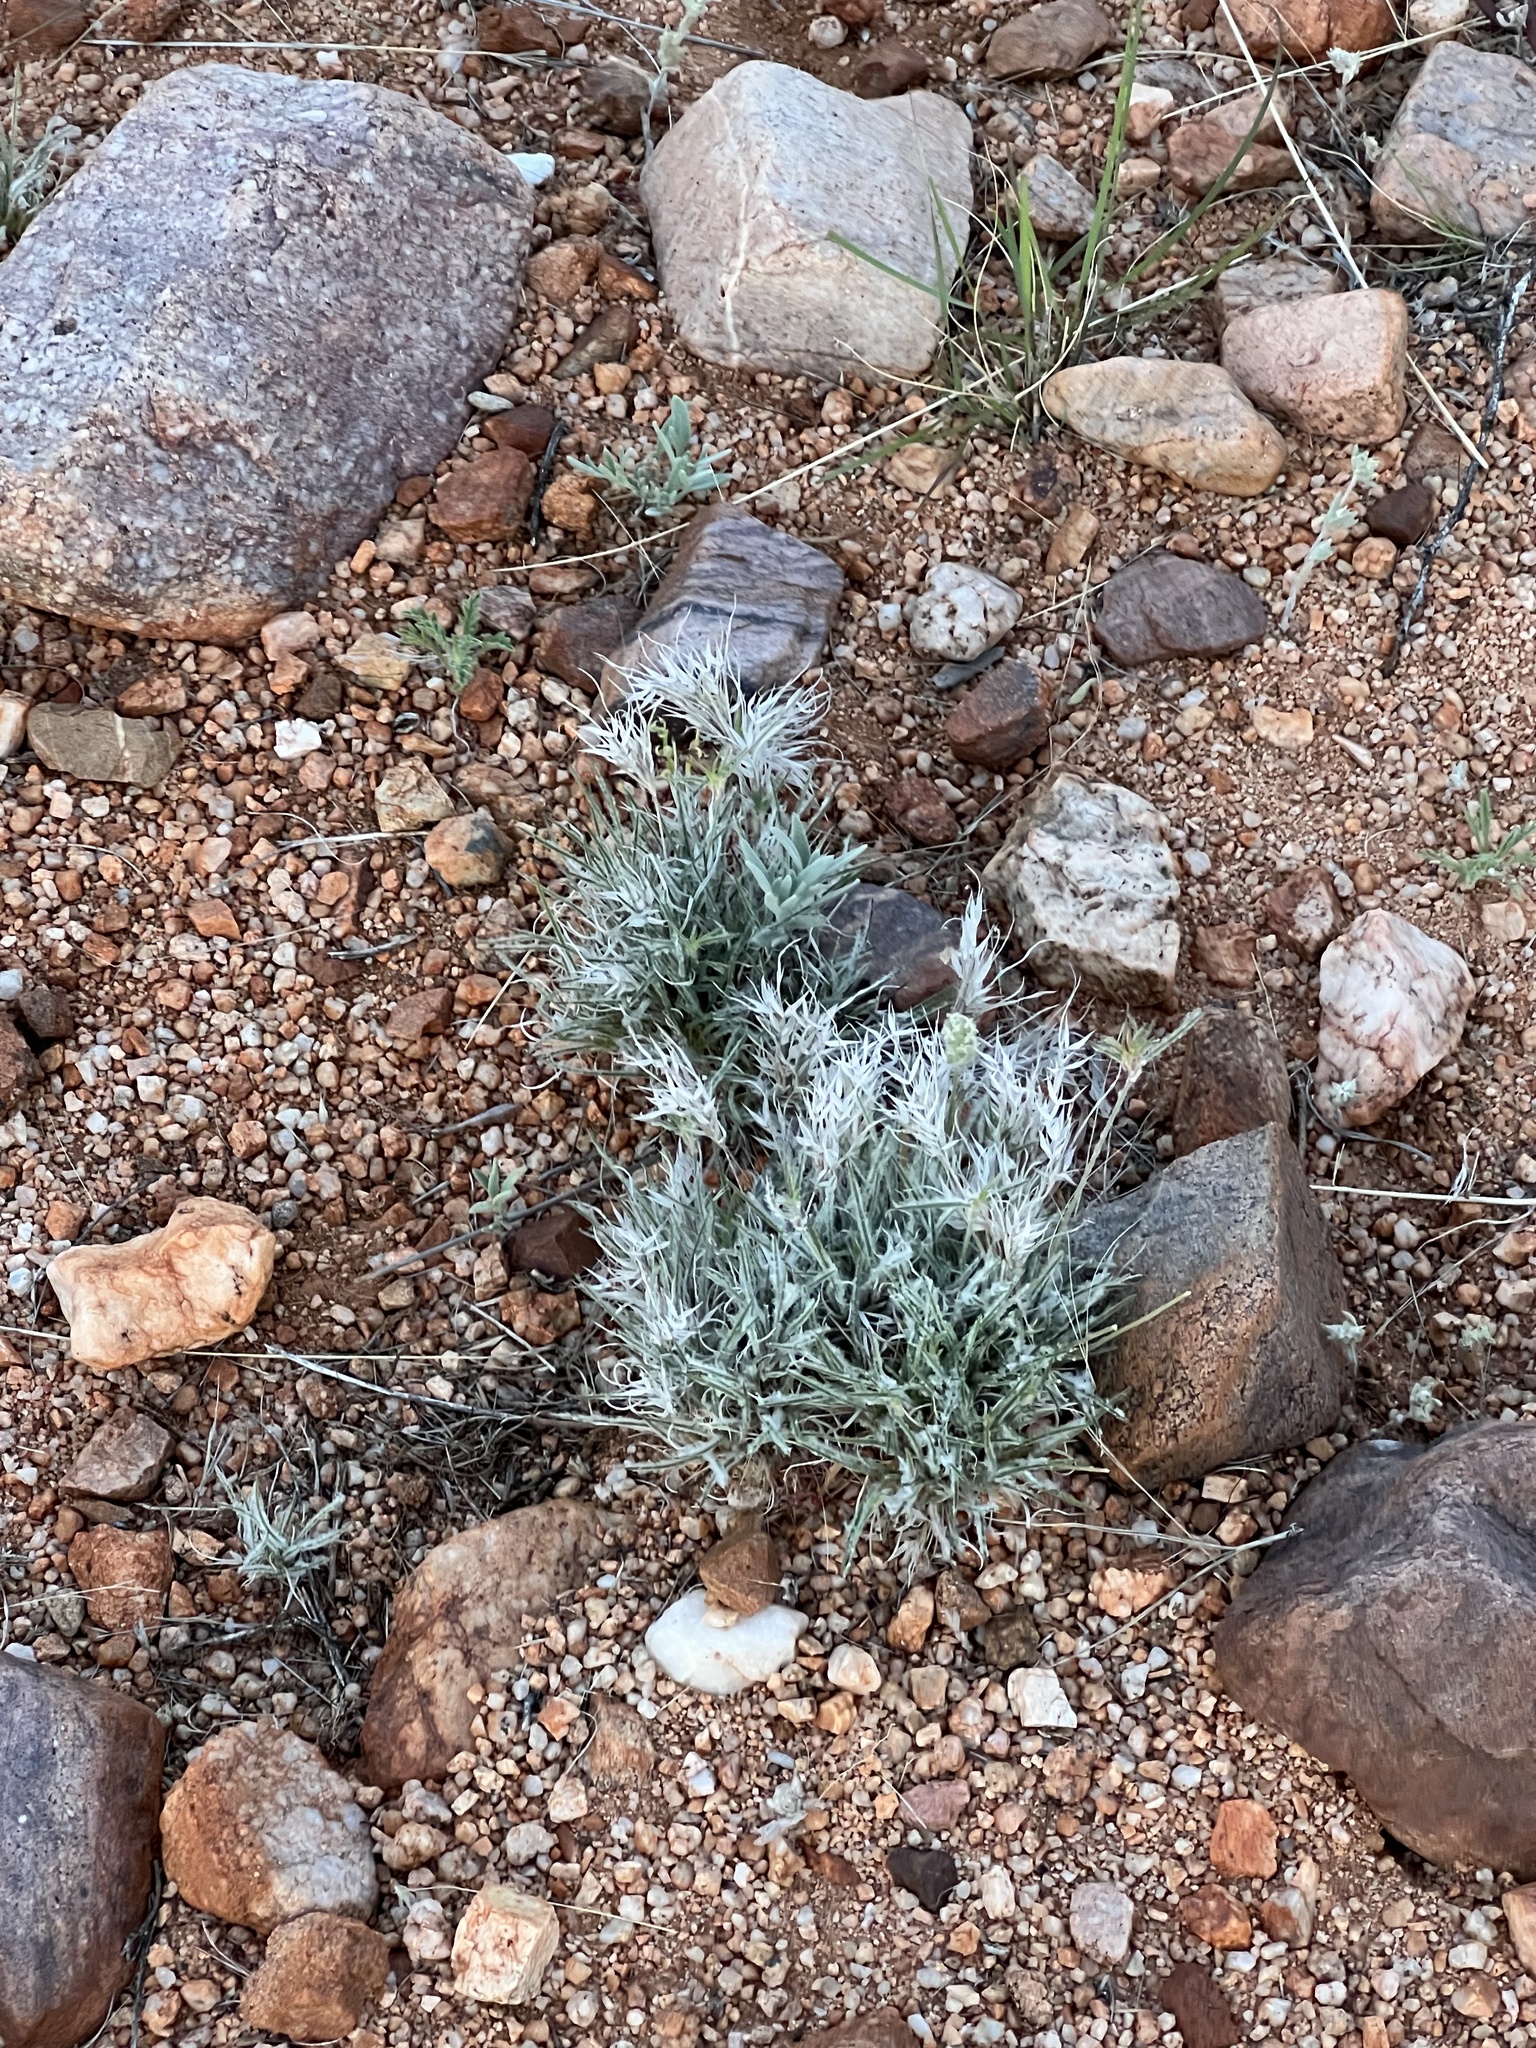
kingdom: Plantae
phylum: Tracheophyta
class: Liliopsida
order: Poales
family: Poaceae
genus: Dasyochloa
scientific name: Dasyochloa pulchella
